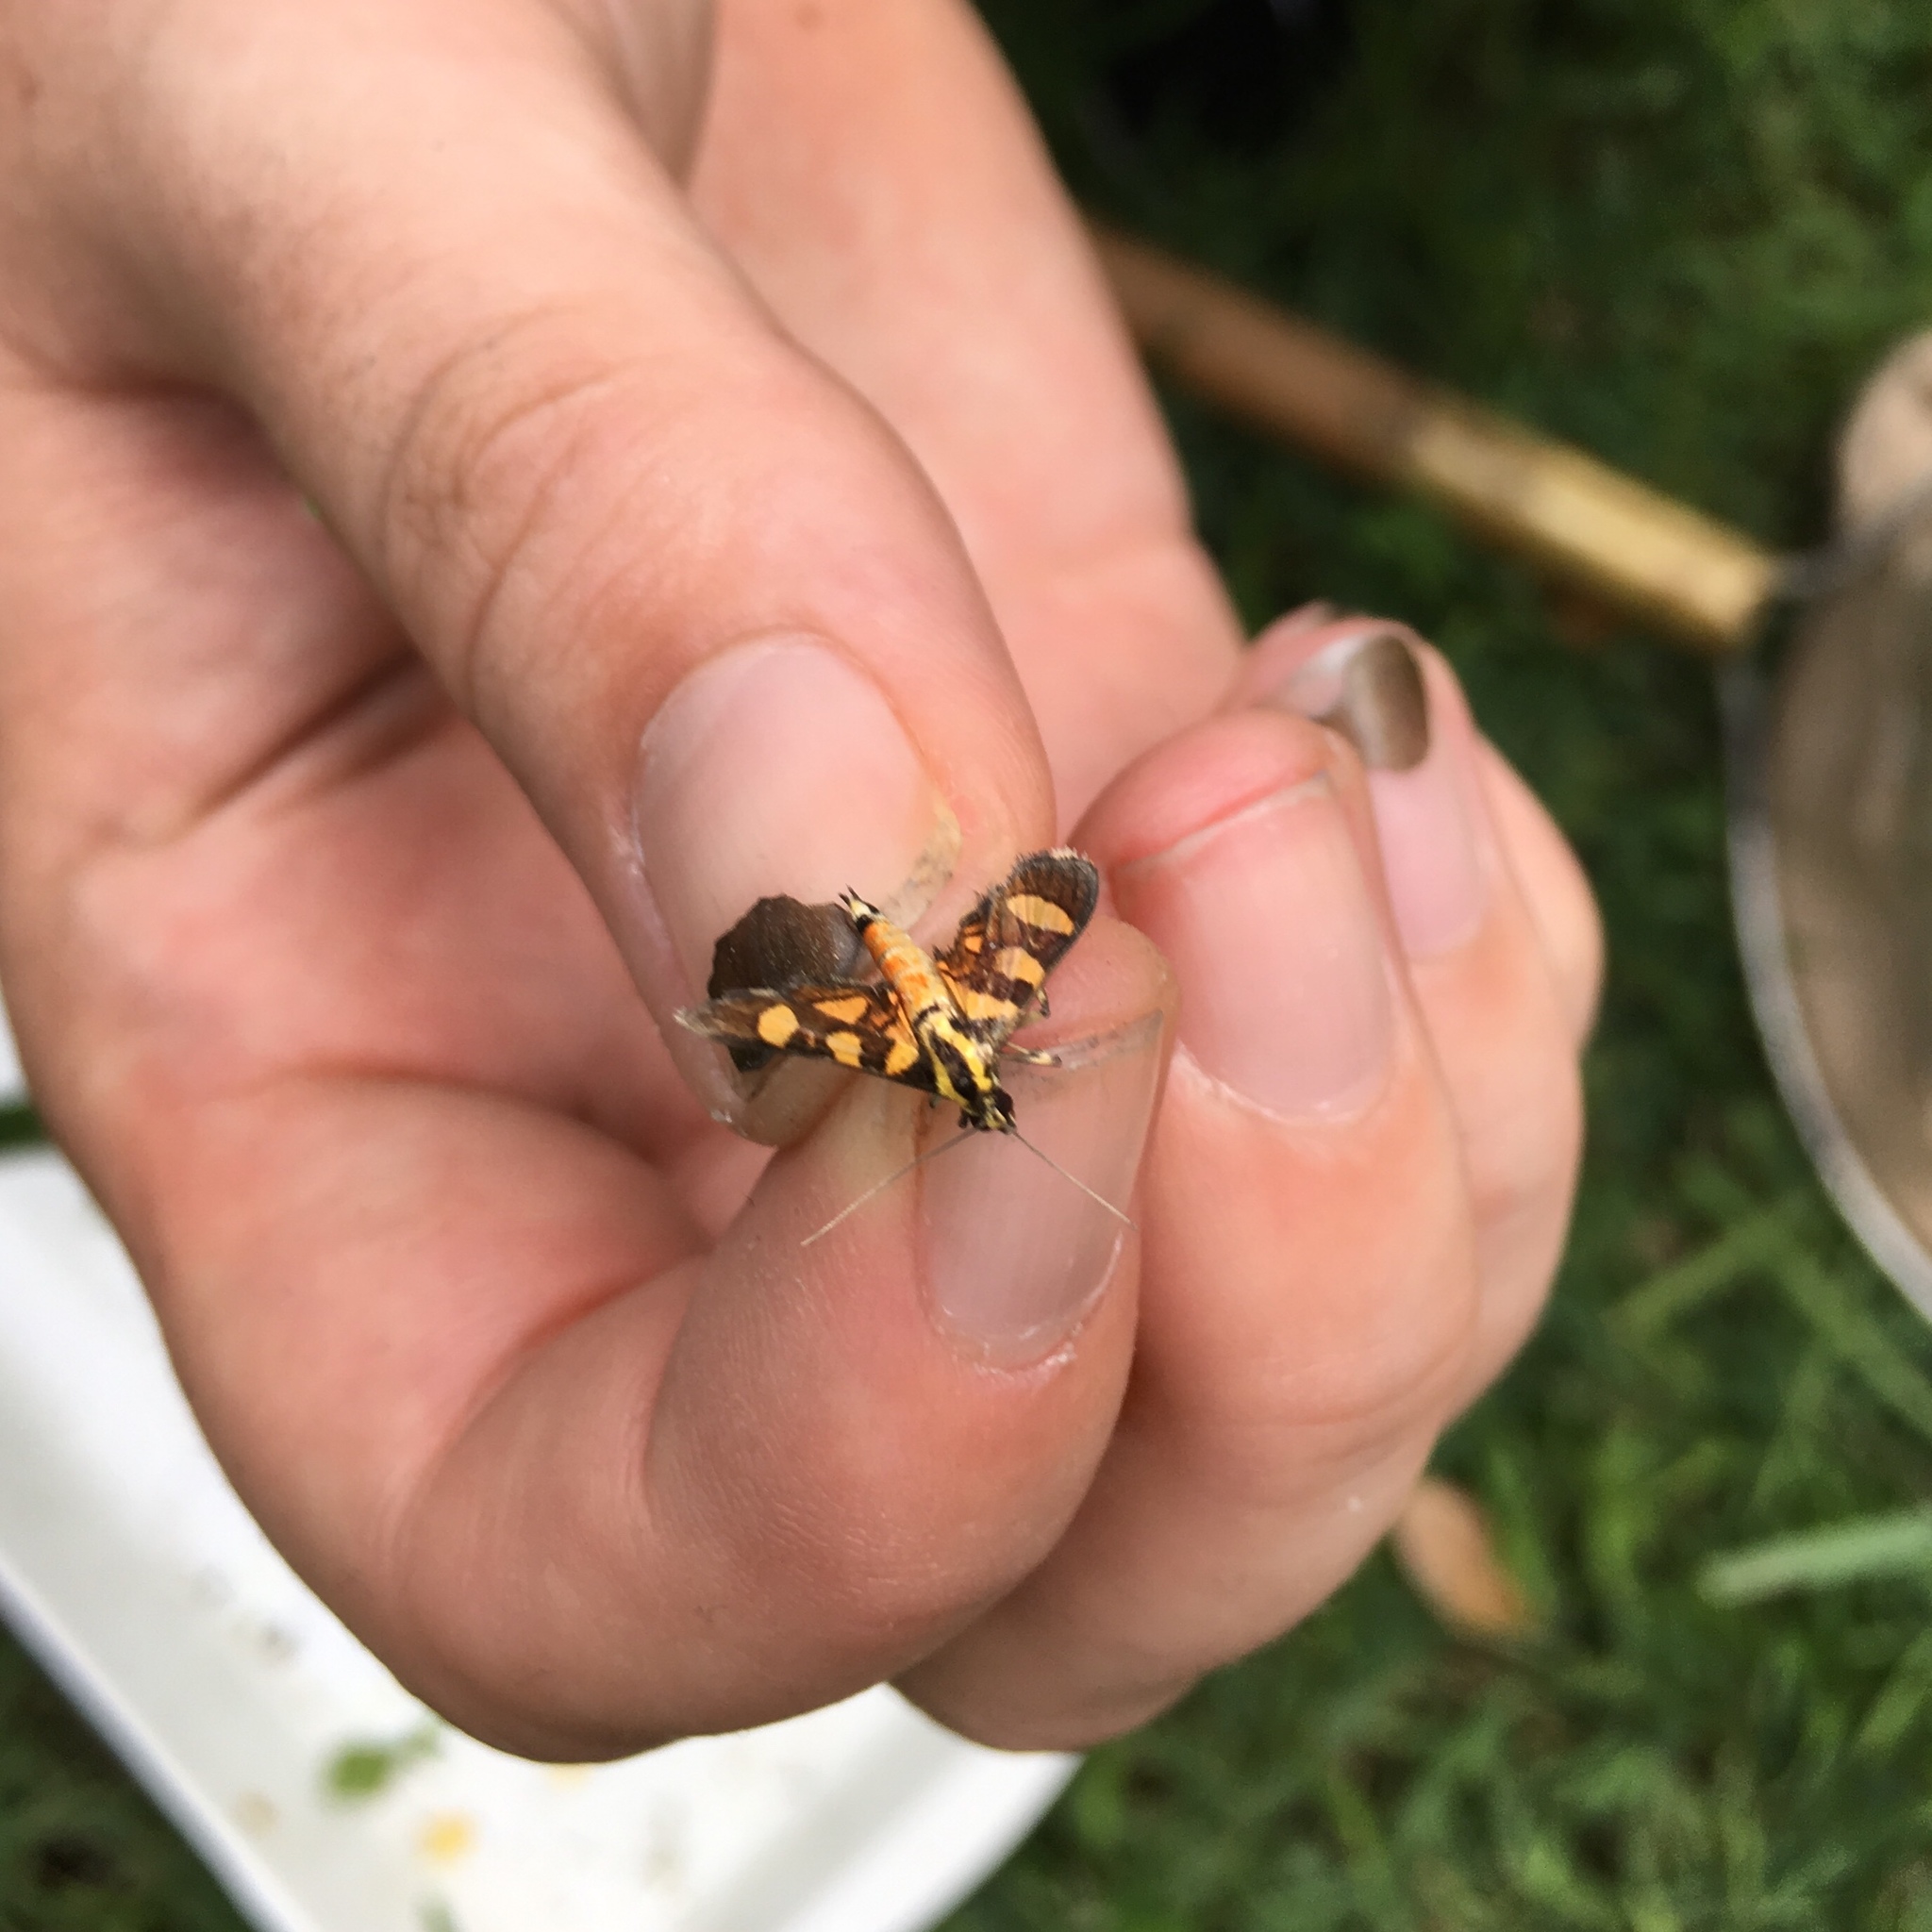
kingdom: Animalia
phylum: Arthropoda
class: Insecta
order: Lepidoptera
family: Crambidae
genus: Syngamia
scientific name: Syngamia florella
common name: Orange-spotted flower moth
